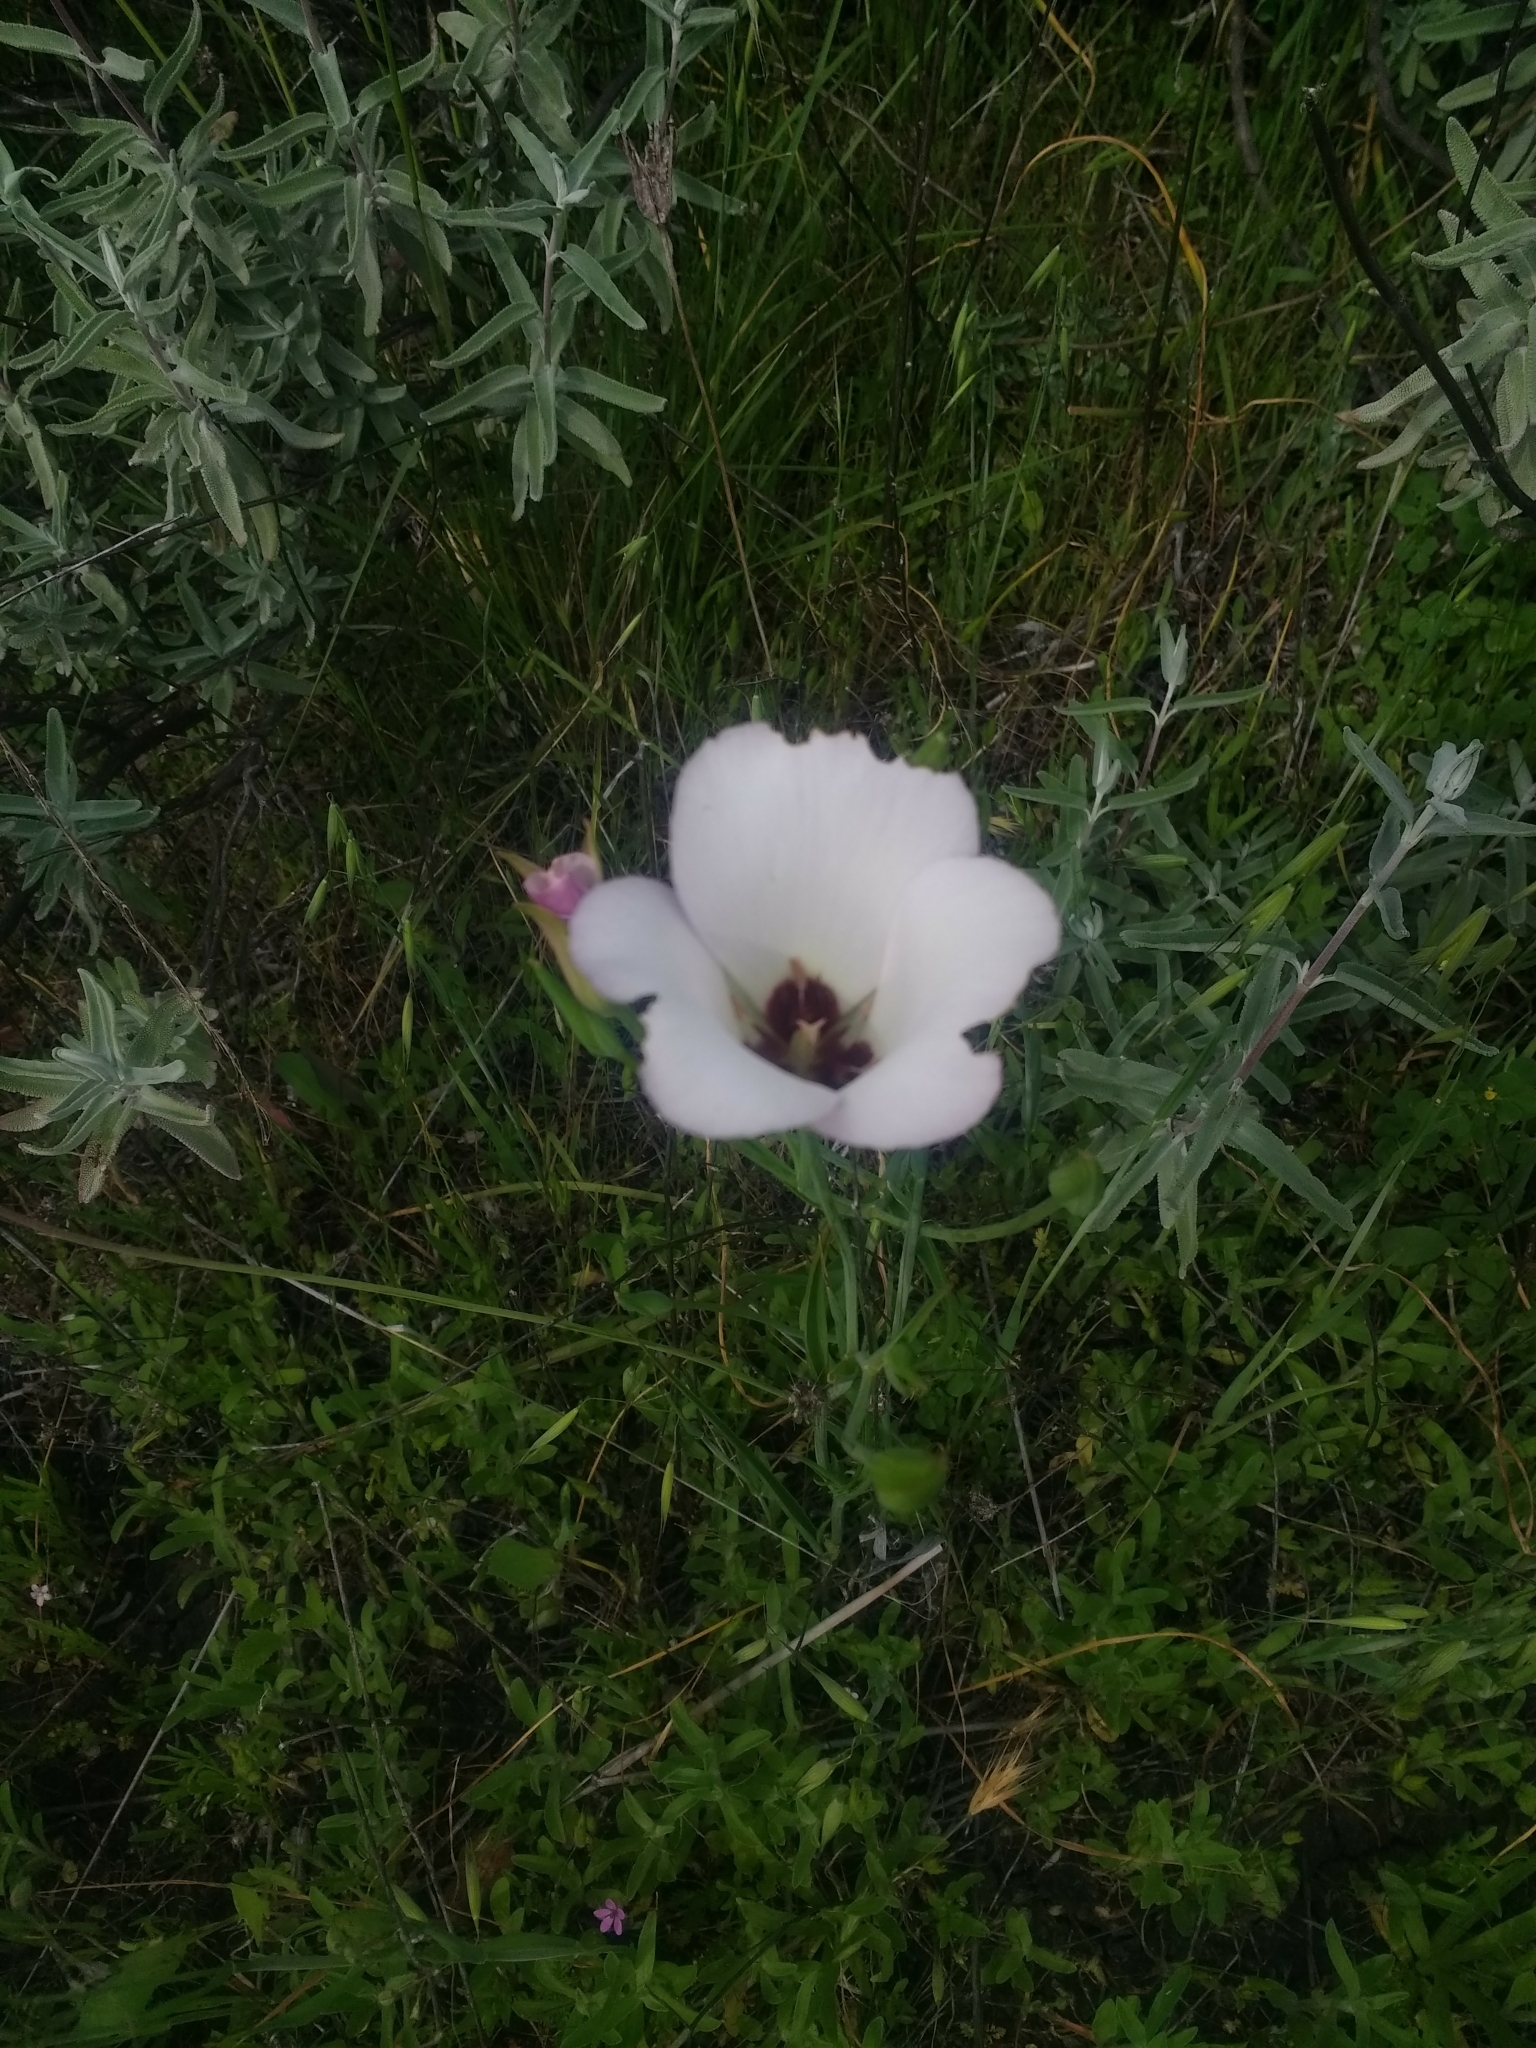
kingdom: Plantae
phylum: Tracheophyta
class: Liliopsida
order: Liliales
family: Liliaceae
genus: Calochortus
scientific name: Calochortus catalinae
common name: Catalina mariposa-lily
